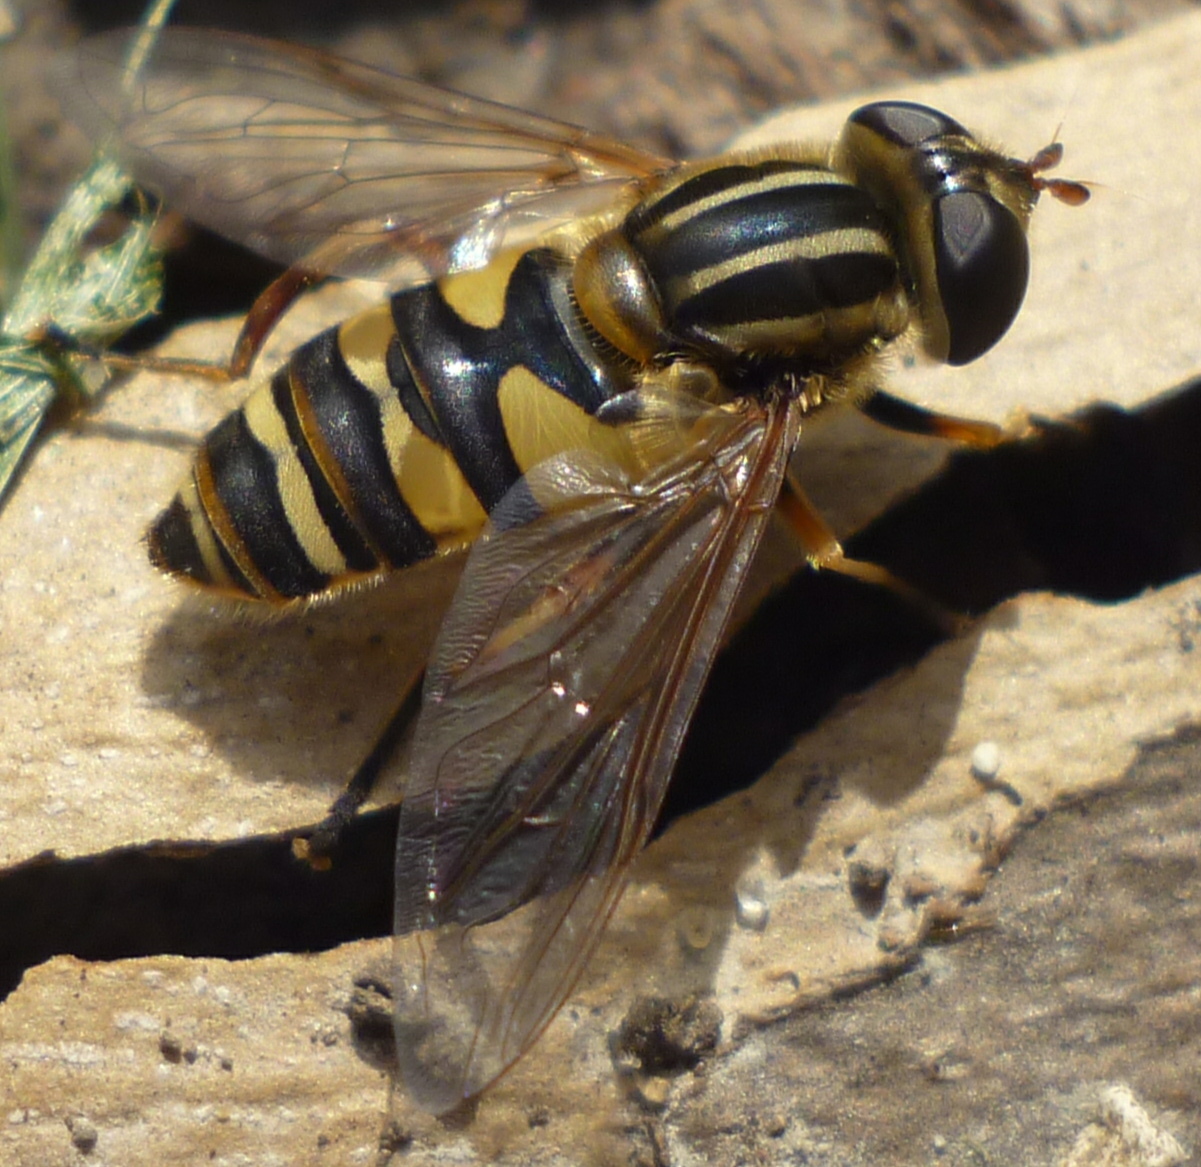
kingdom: Animalia
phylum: Arthropoda
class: Insecta
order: Diptera
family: Syrphidae
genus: Helophilus
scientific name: Helophilus fasciatus
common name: Narrow-headed marsh fly
